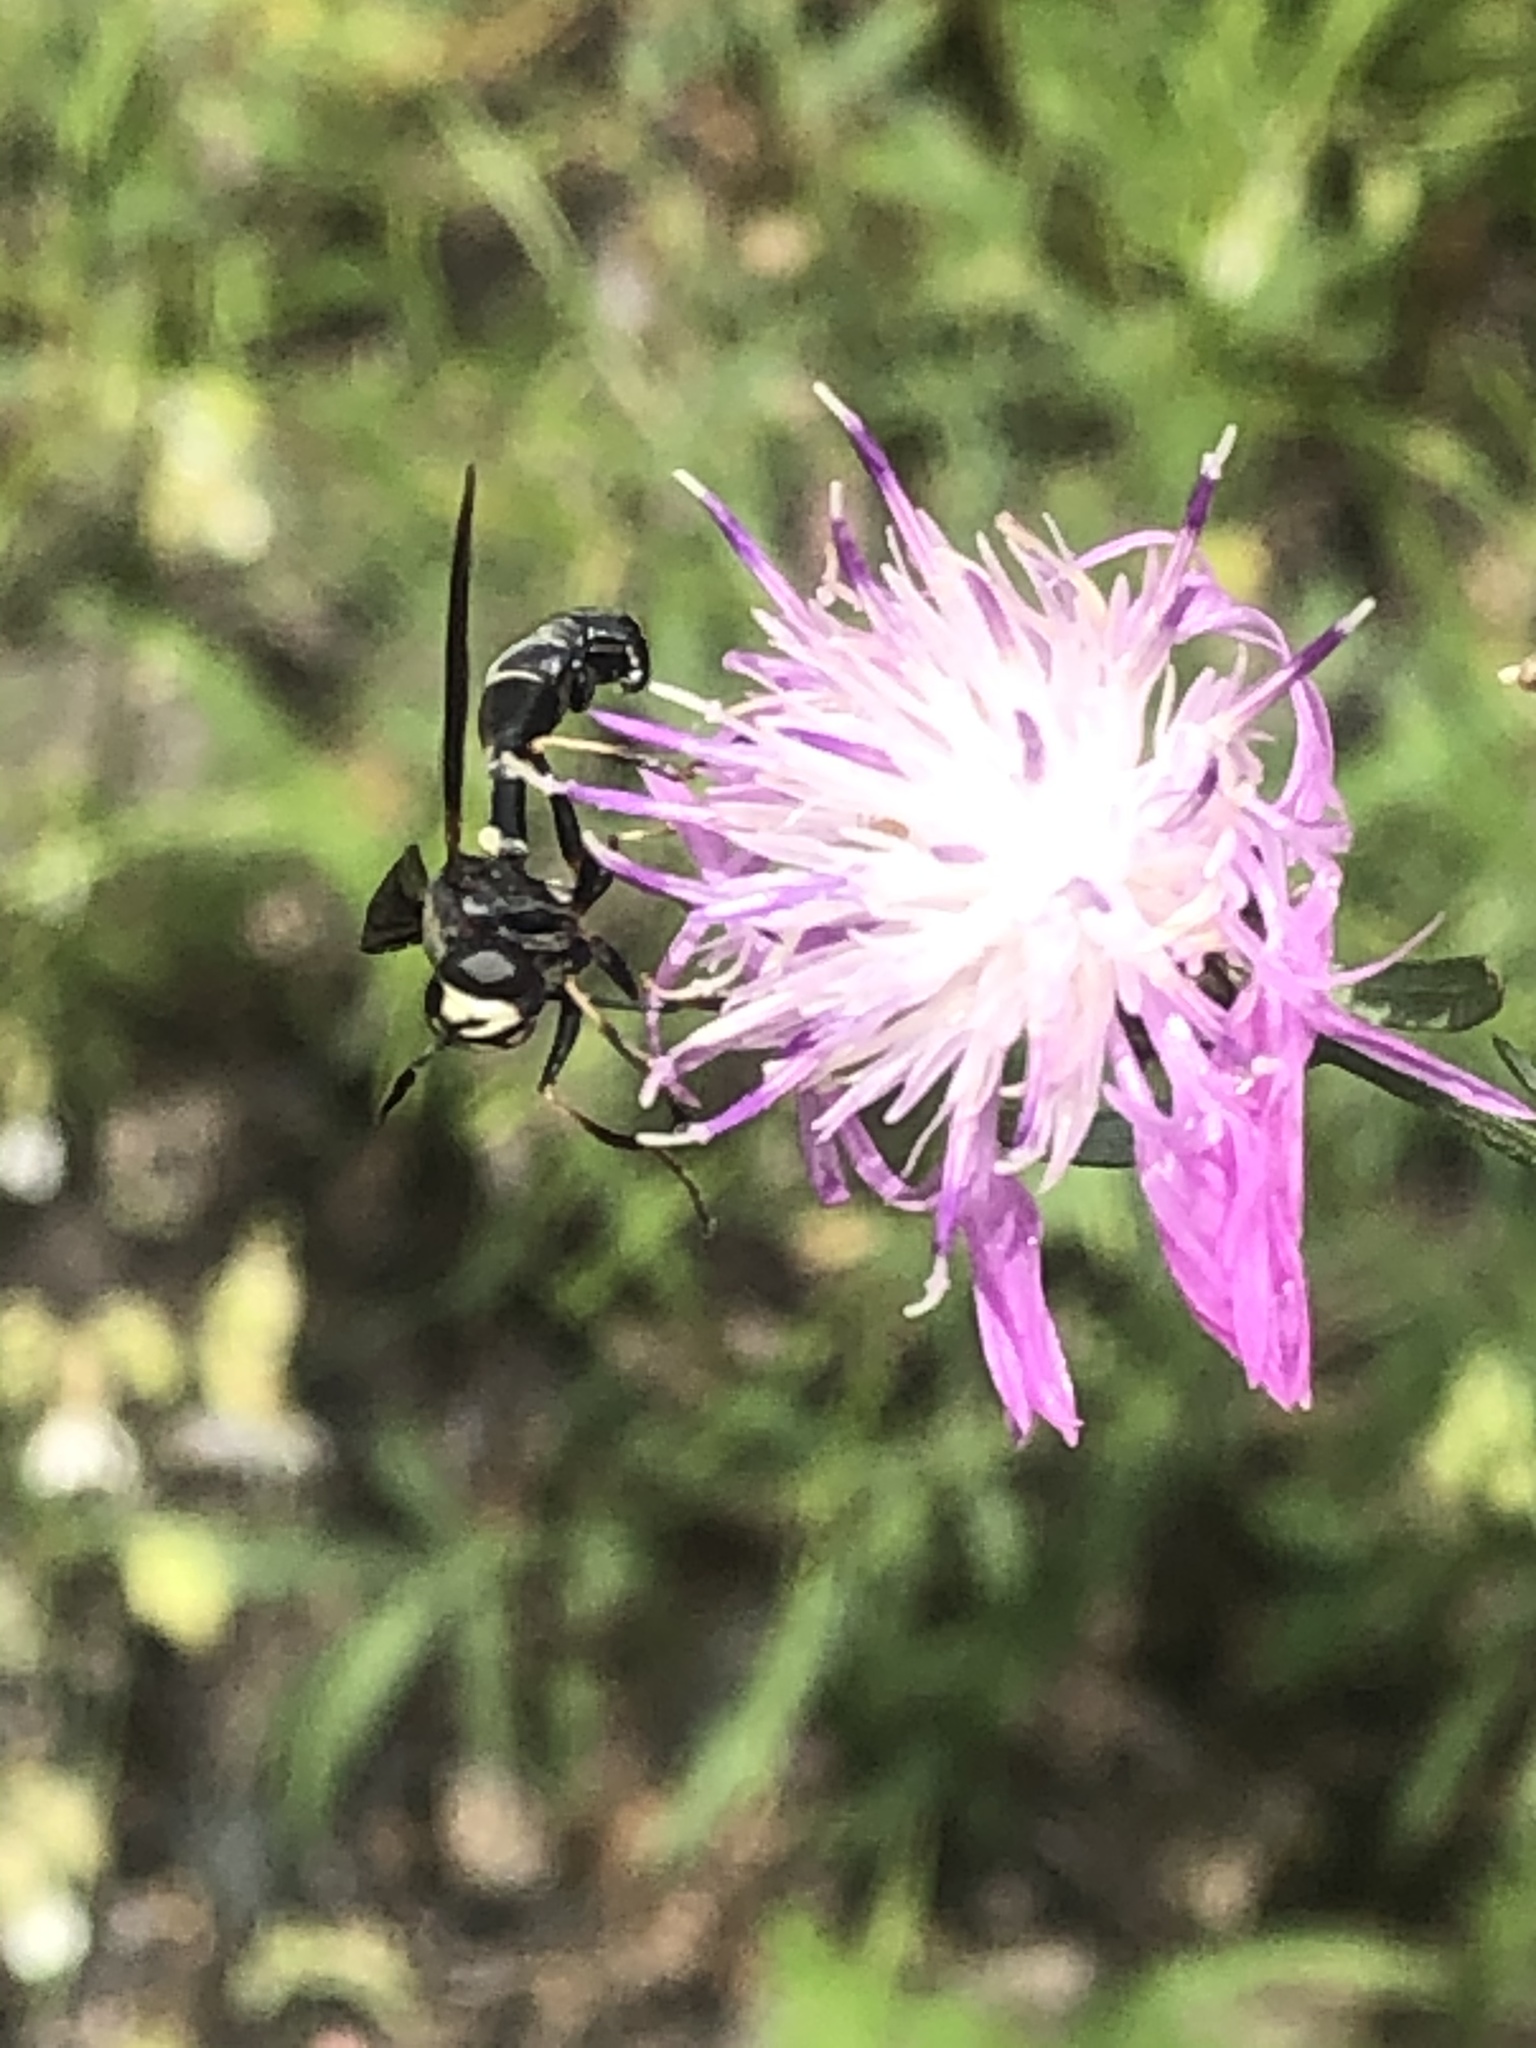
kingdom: Animalia
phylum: Arthropoda
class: Insecta
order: Diptera
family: Conopidae
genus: Physocephala
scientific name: Physocephala tibialis
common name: Common eastern physocephala
